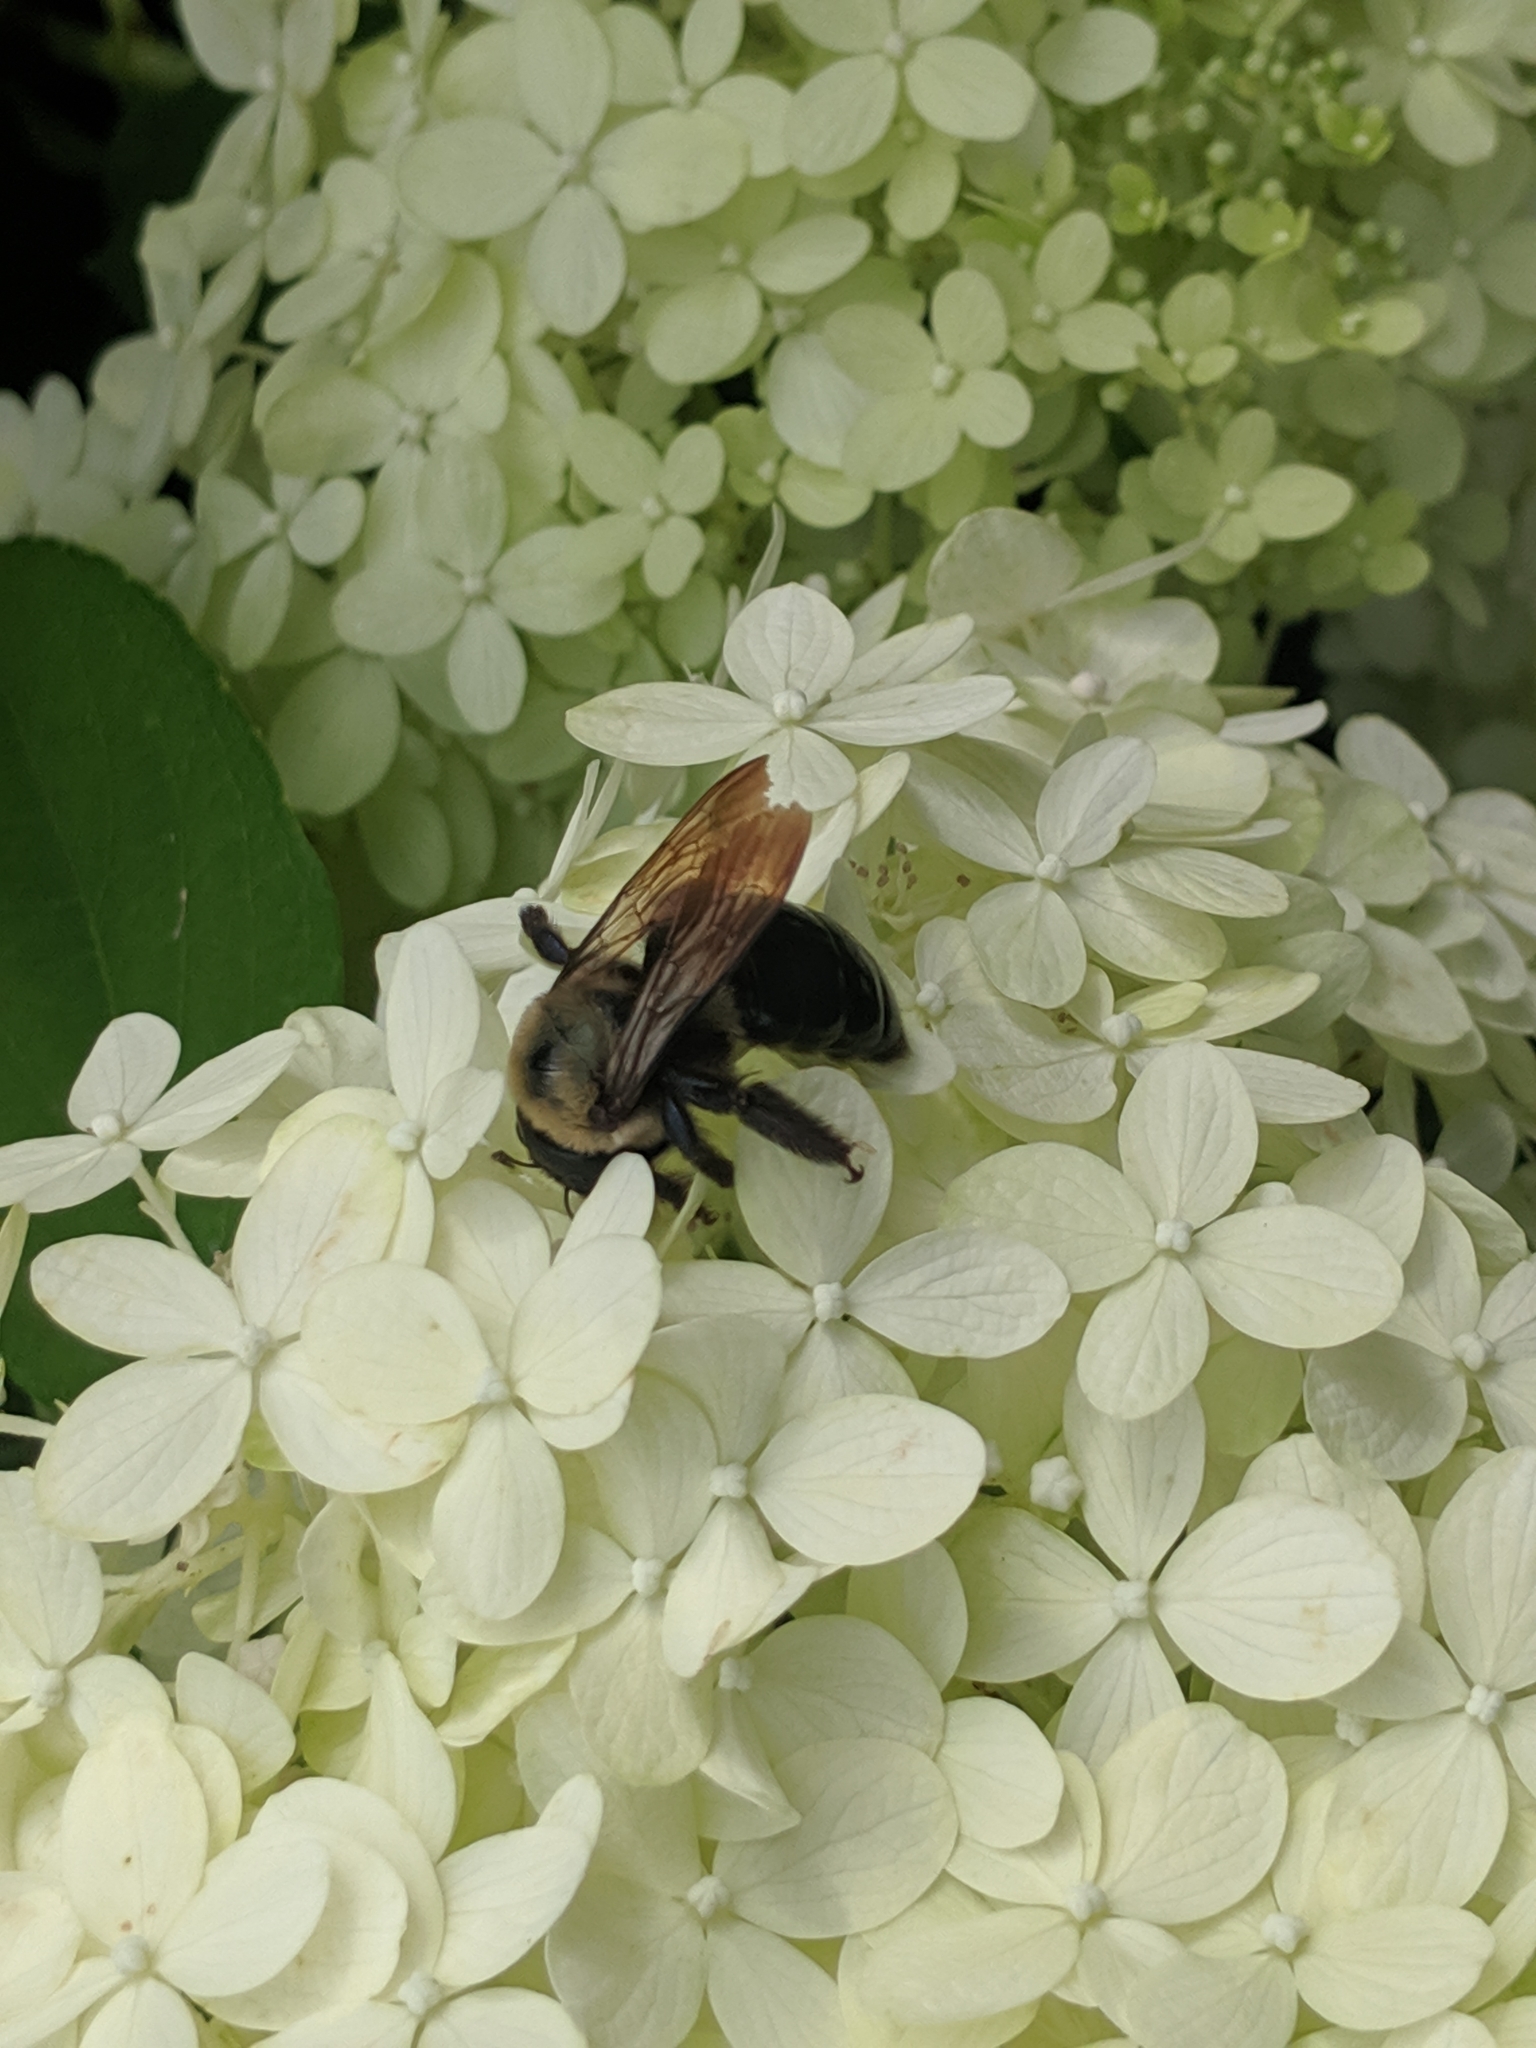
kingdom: Animalia
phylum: Arthropoda
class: Insecta
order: Hymenoptera
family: Apidae
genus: Xylocopa
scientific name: Xylocopa virginica
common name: Carpenter bee
